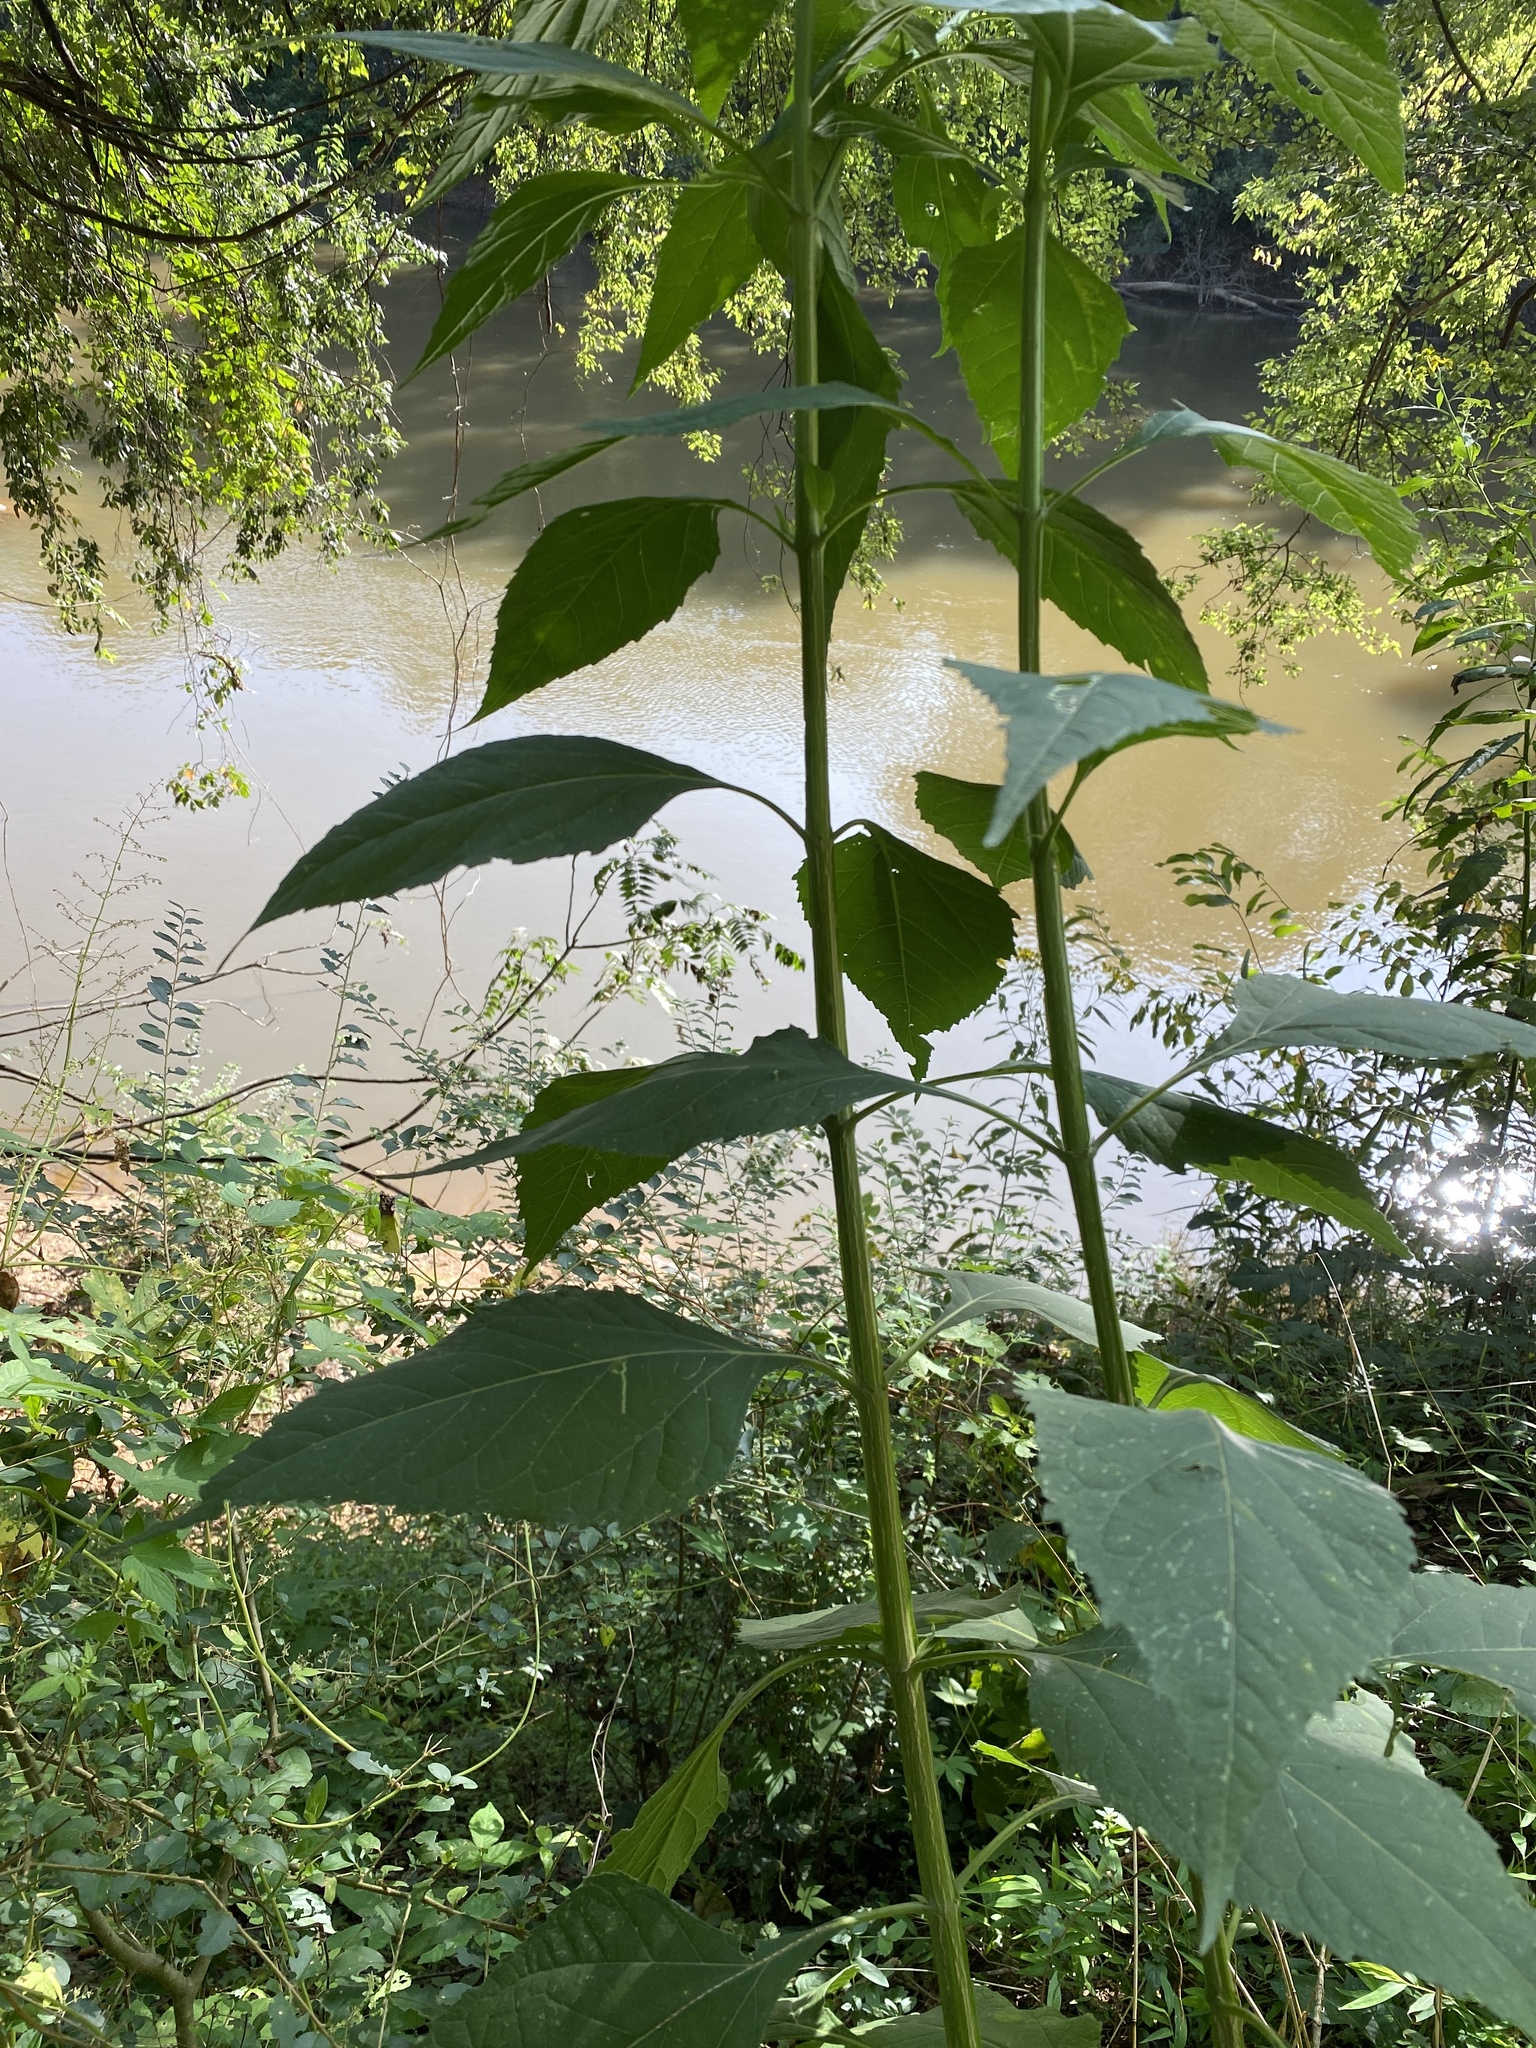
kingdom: Plantae
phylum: Tracheophyta
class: Magnoliopsida
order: Asterales
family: Asteraceae
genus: Verbesina
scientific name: Verbesina occidentalis
